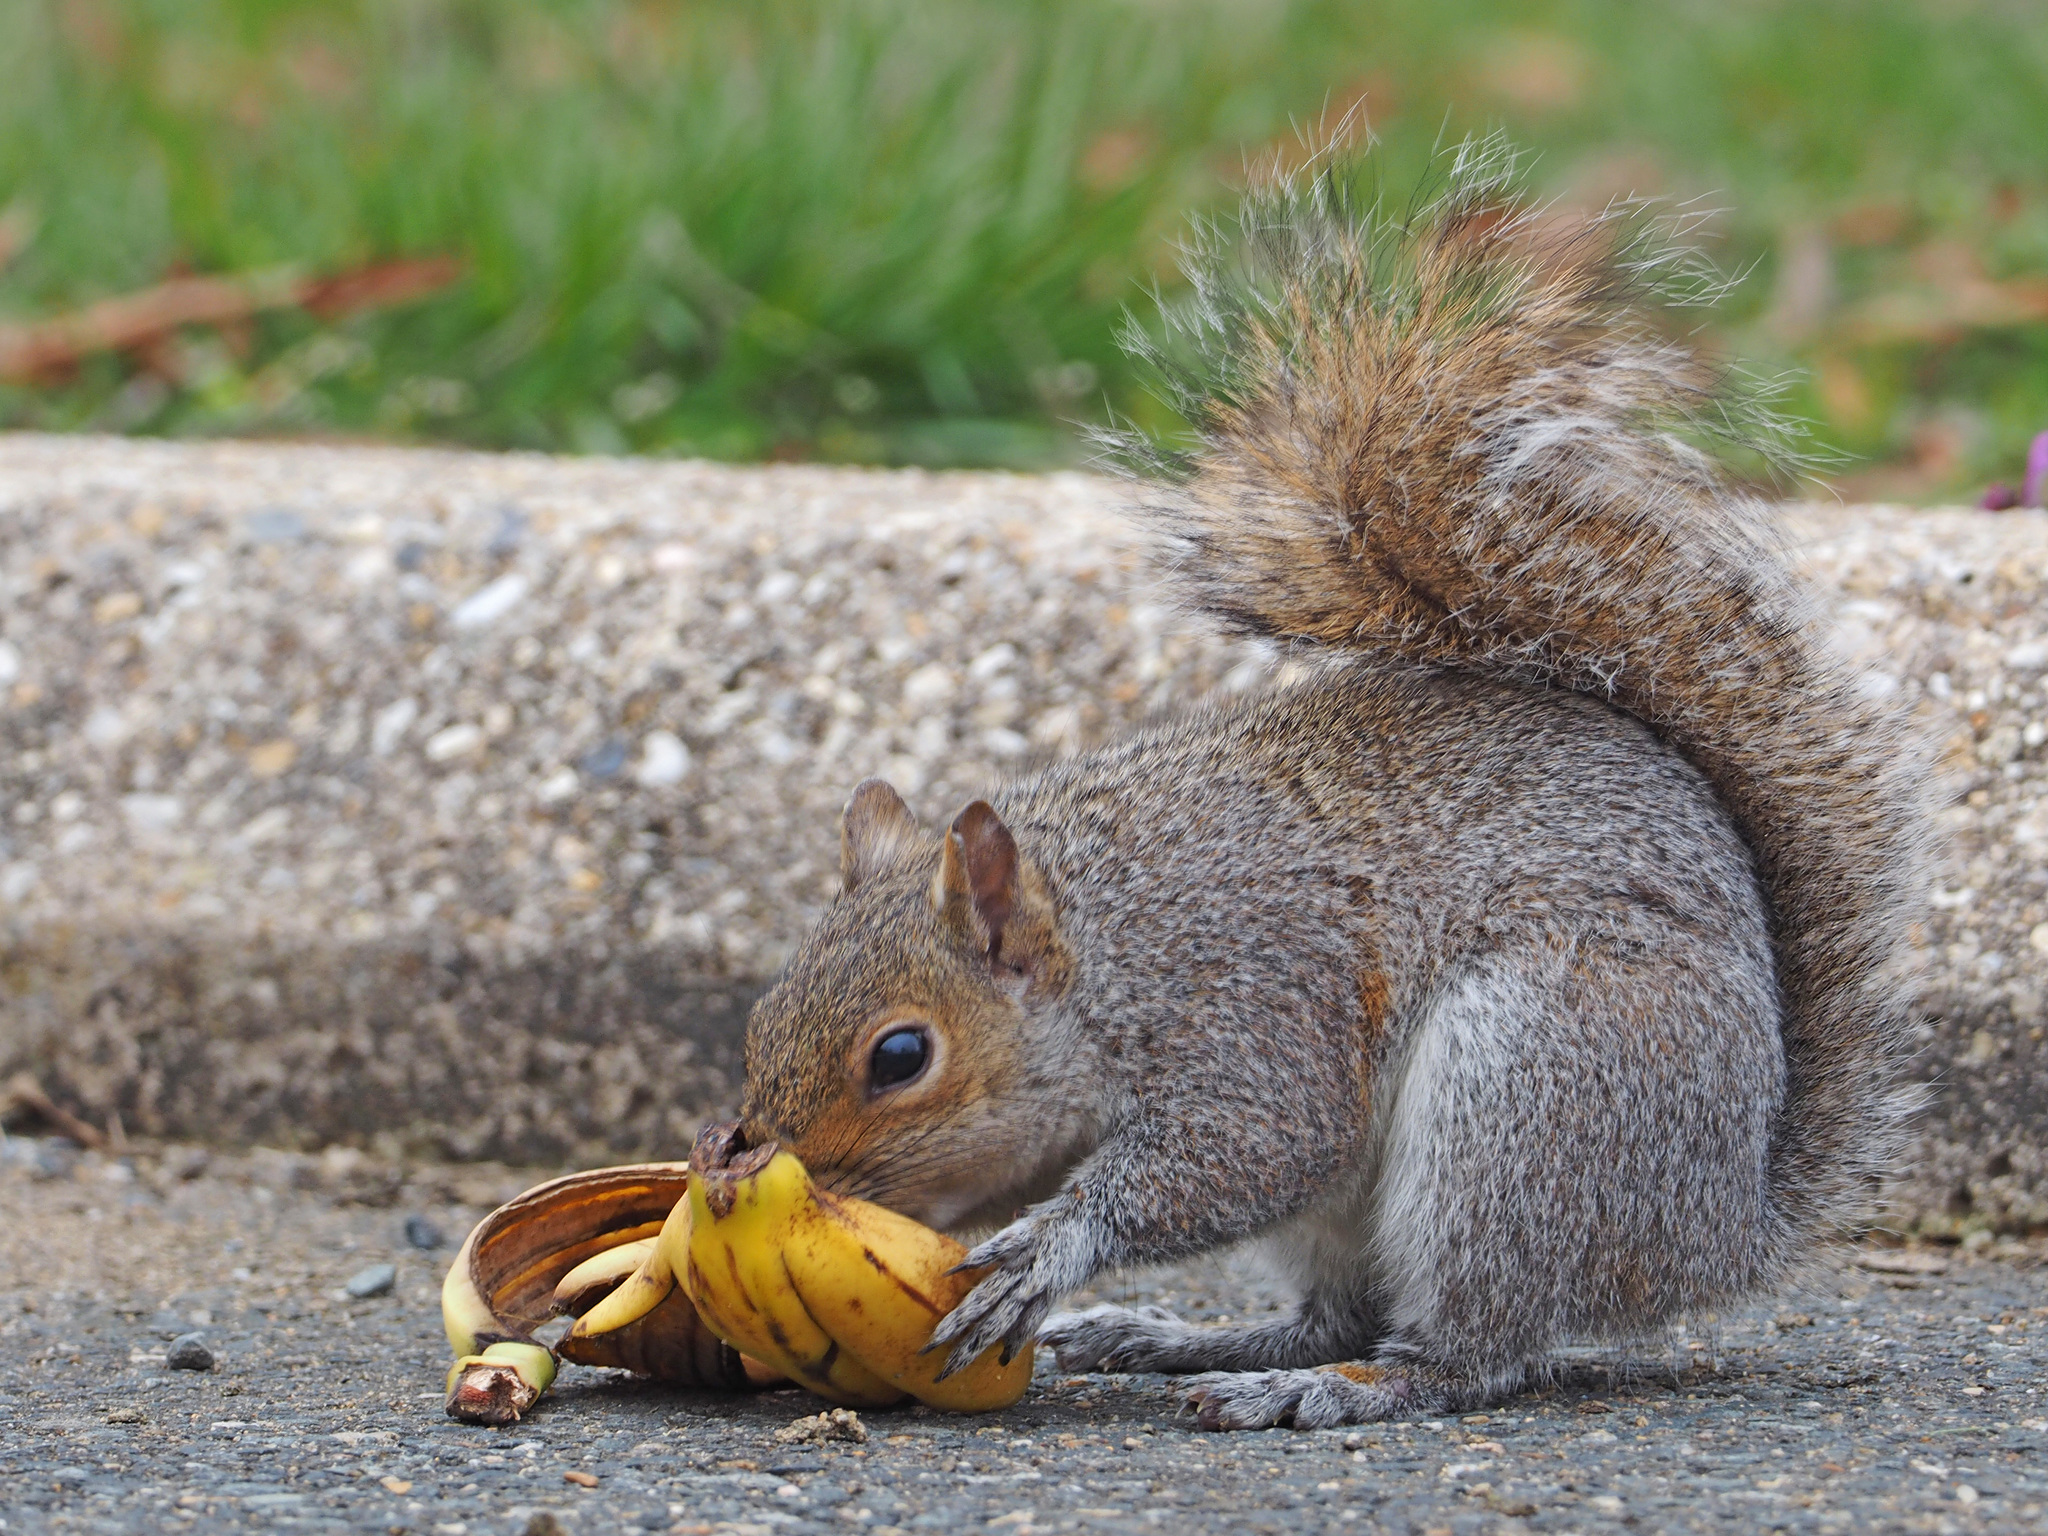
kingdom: Animalia
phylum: Chordata
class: Mammalia
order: Rodentia
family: Sciuridae
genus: Sciurus
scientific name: Sciurus carolinensis
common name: Eastern gray squirrel
